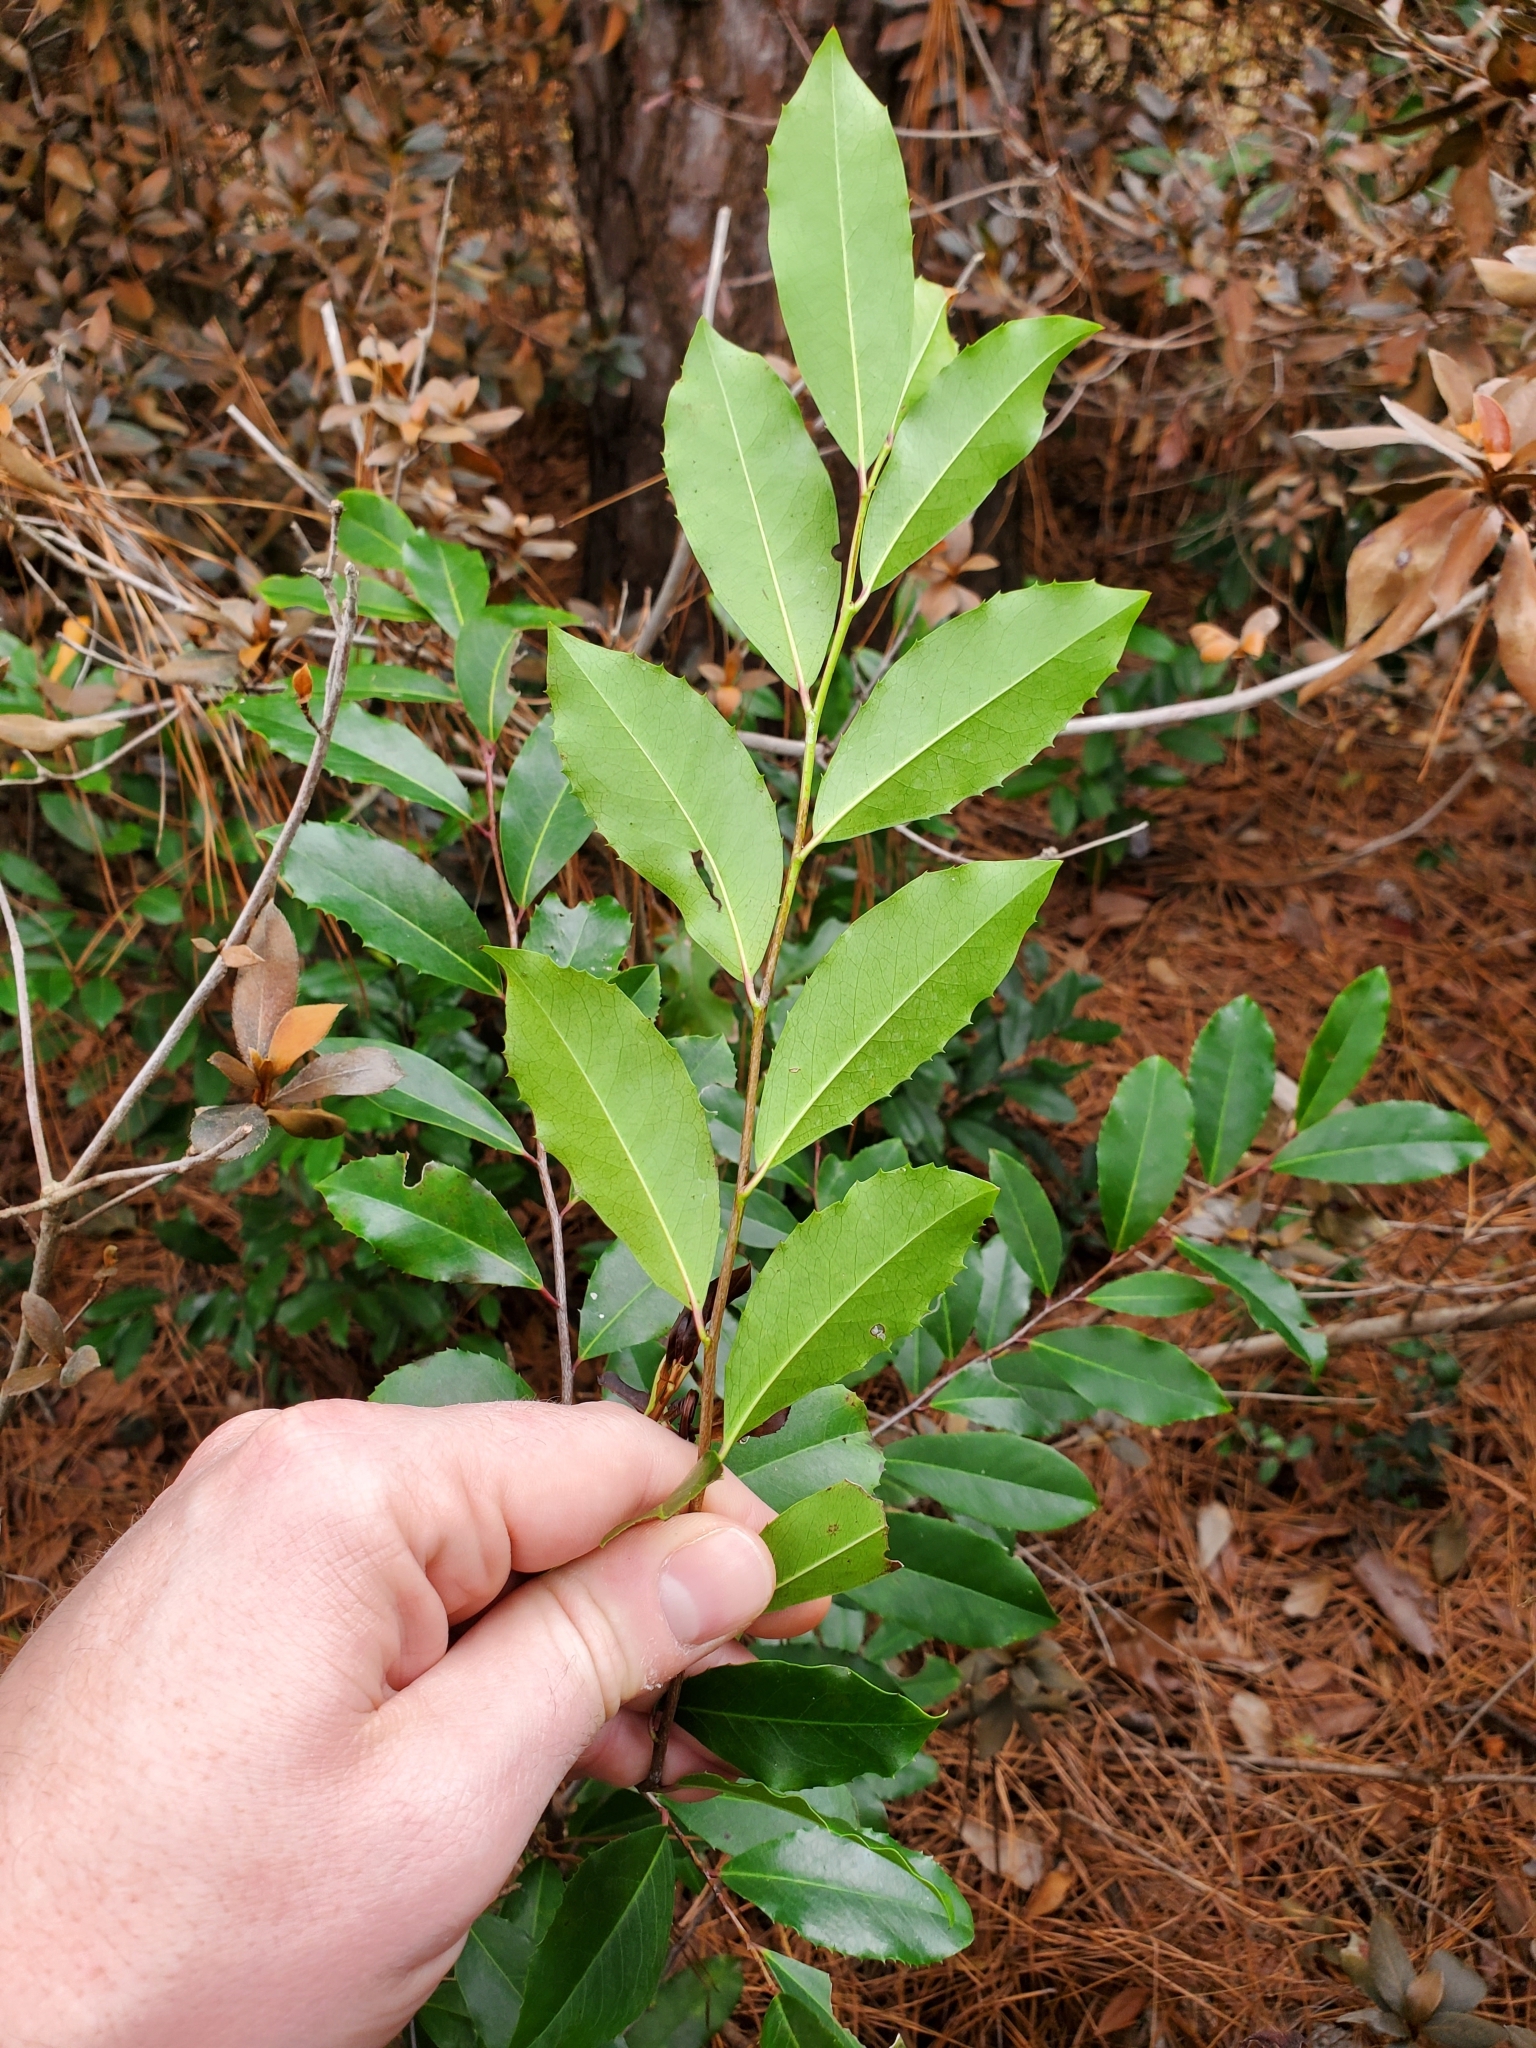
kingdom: Plantae
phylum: Tracheophyta
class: Magnoliopsida
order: Rosales
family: Rosaceae
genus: Prunus
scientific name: Prunus caroliniana
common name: Carolina laurel cherry
